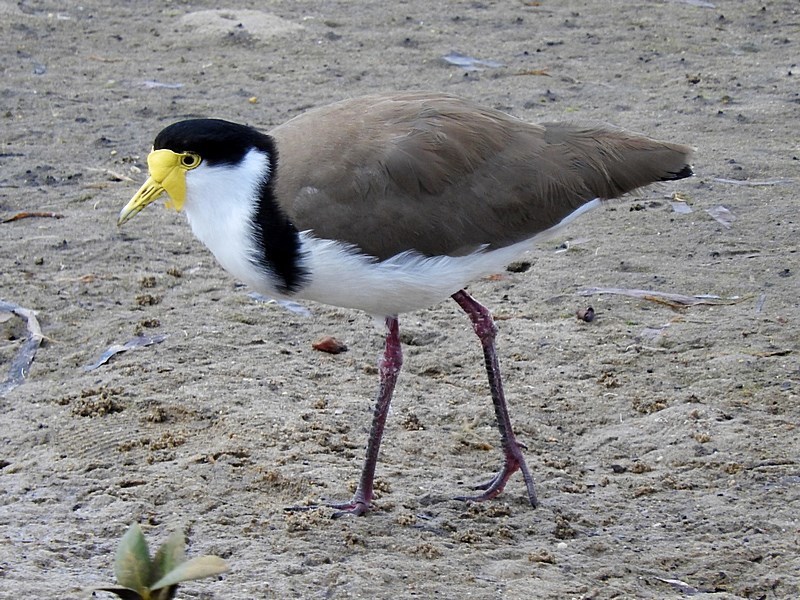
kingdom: Animalia
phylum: Chordata
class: Aves
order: Charadriiformes
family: Charadriidae
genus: Vanellus
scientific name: Vanellus miles
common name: Masked lapwing
